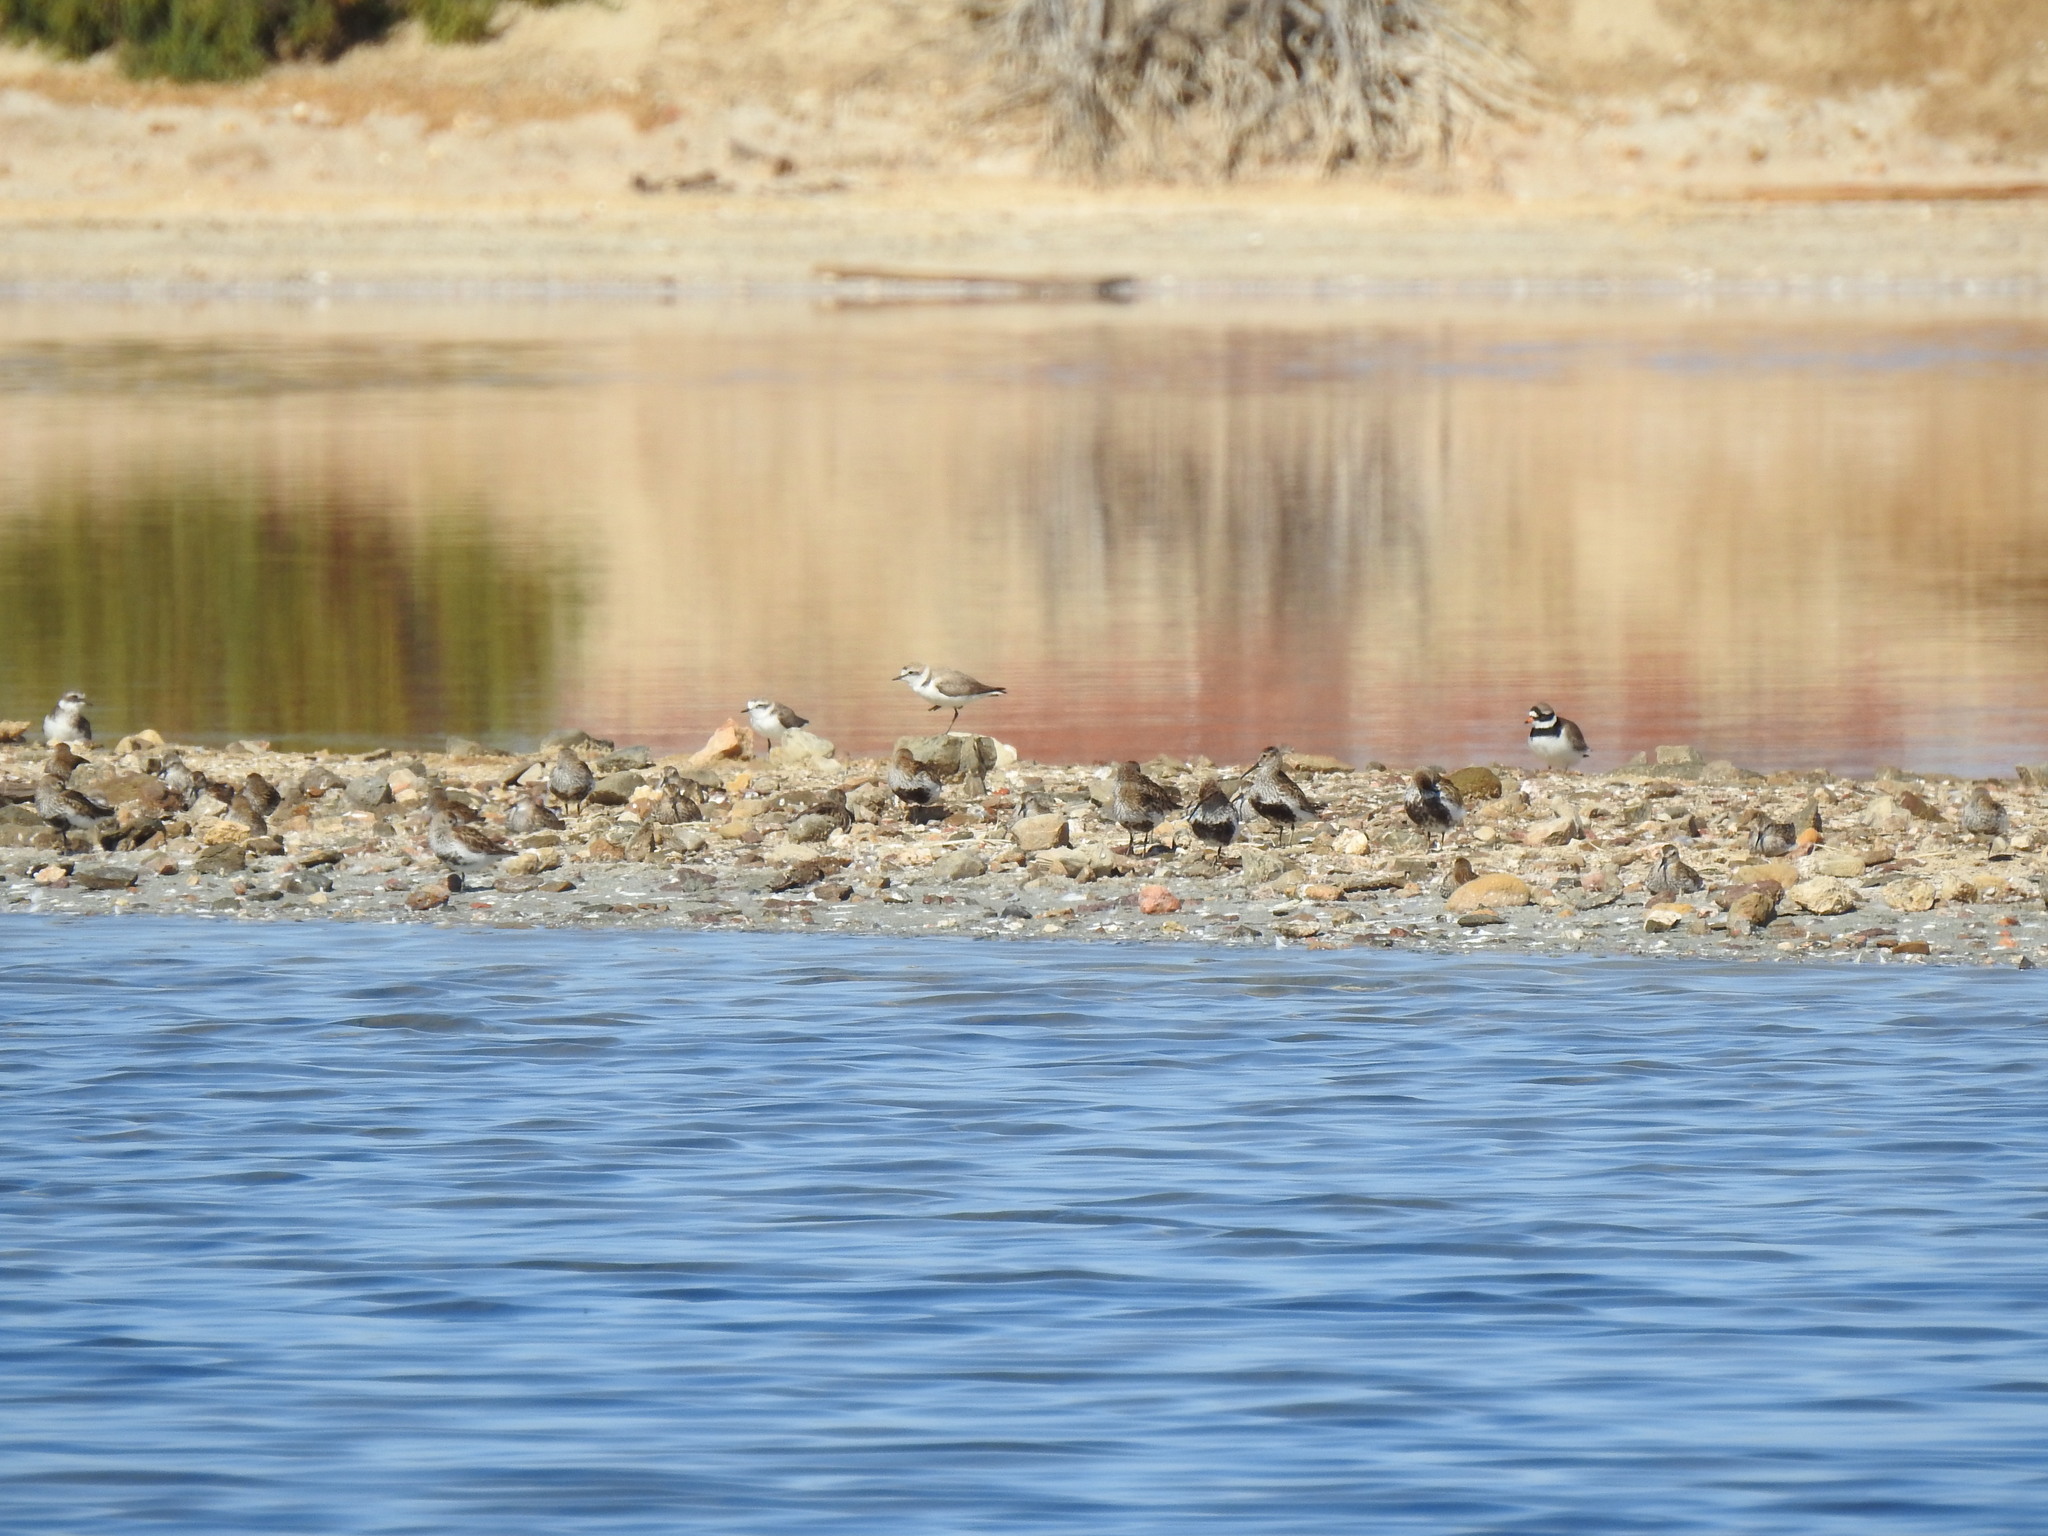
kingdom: Animalia
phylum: Chordata
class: Aves
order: Charadriiformes
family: Charadriidae
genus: Charadrius
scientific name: Charadrius hiaticula
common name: Common ringed plover
